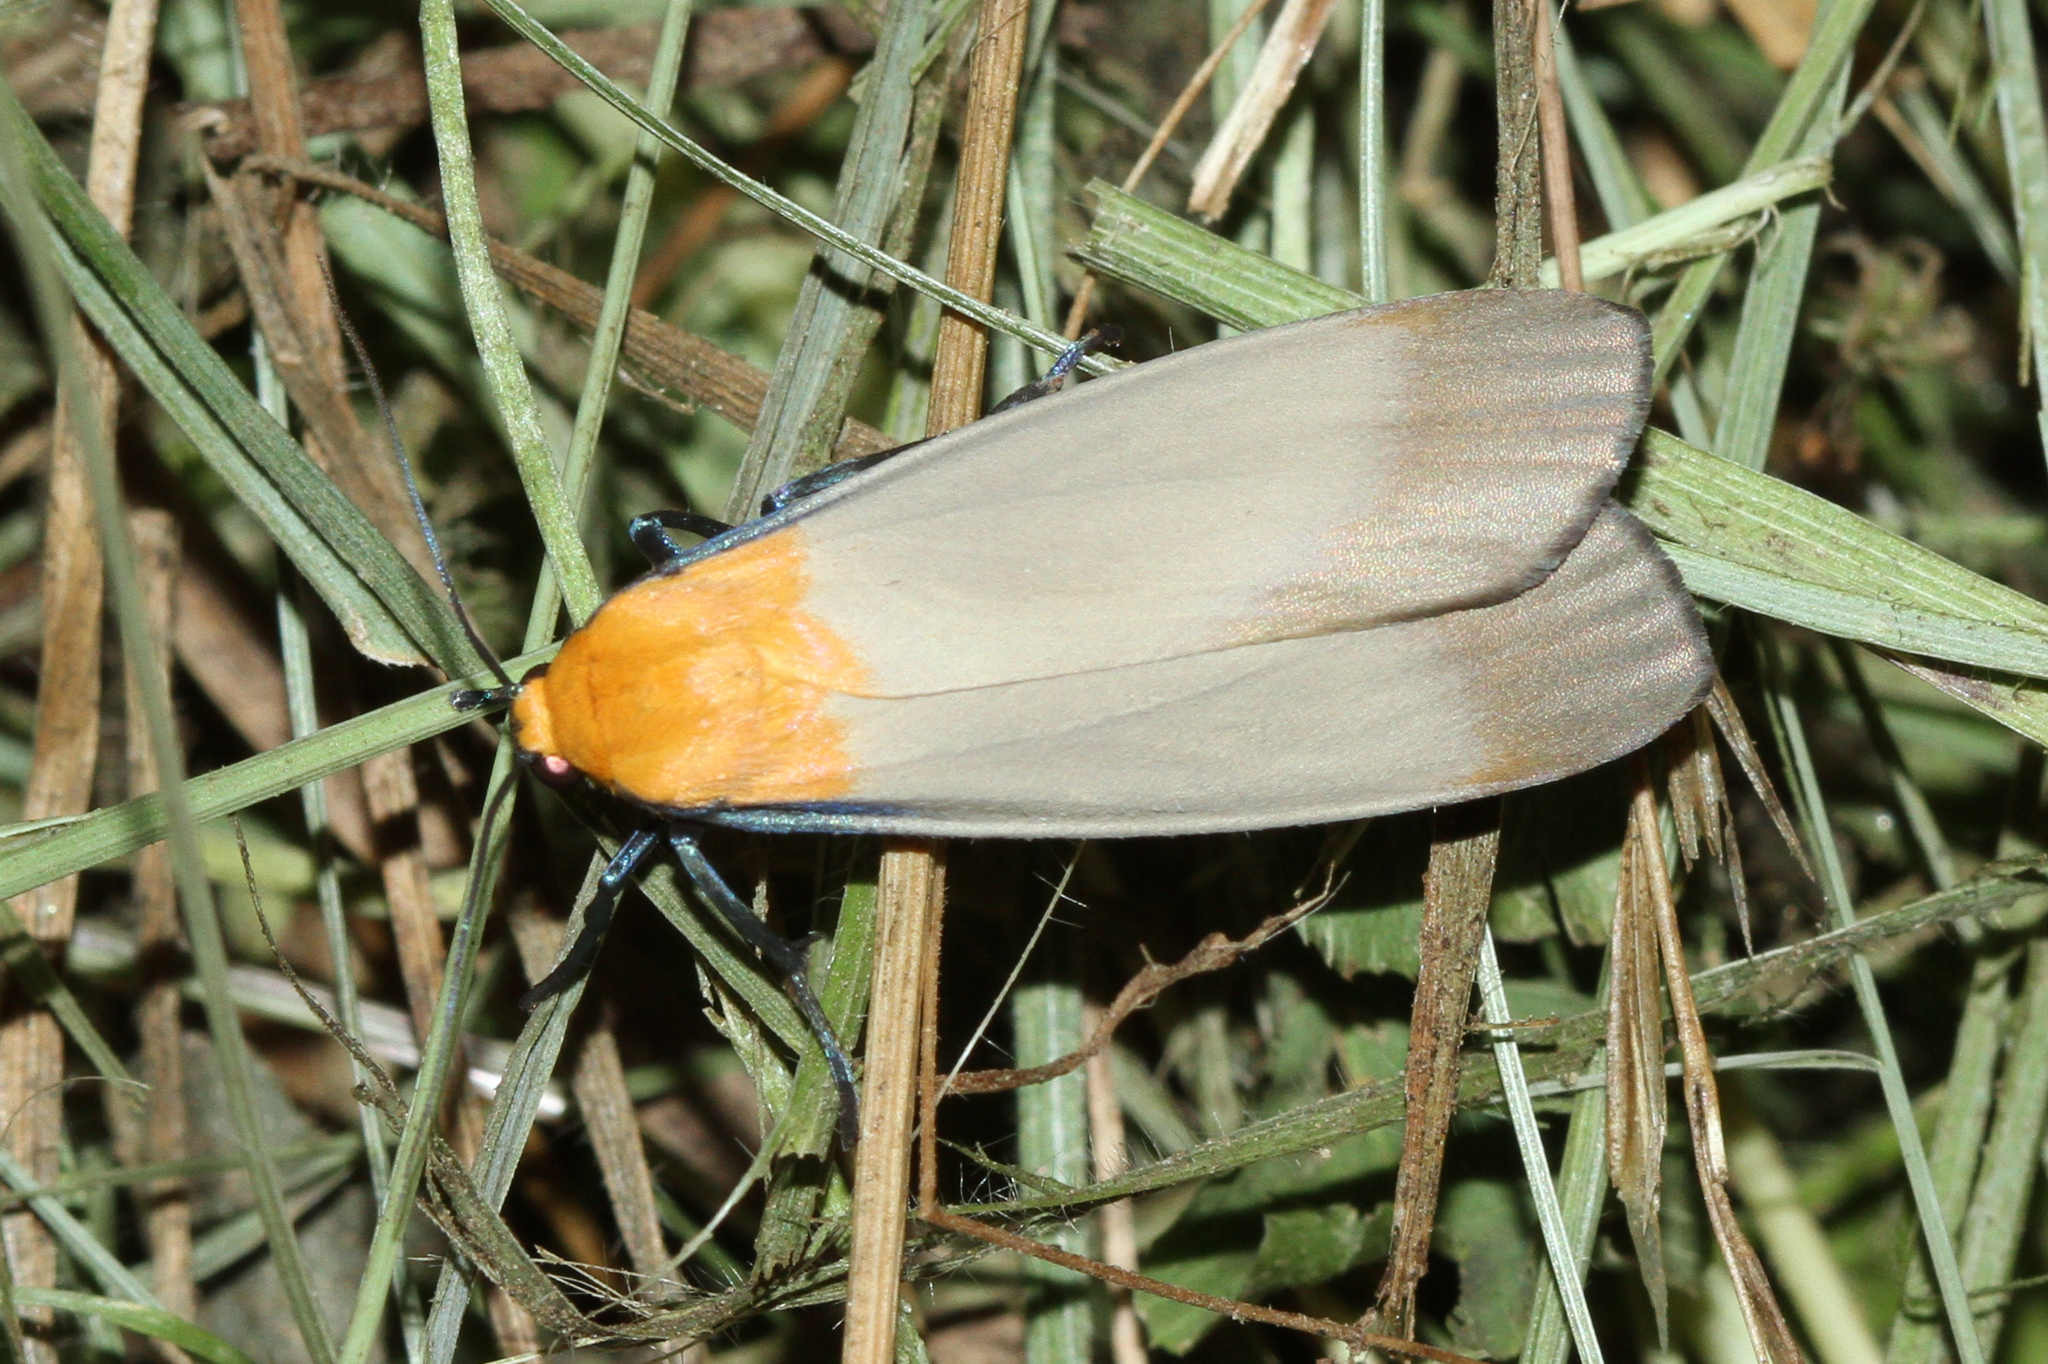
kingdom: Animalia
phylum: Arthropoda
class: Insecta
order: Lepidoptera
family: Erebidae
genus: Lithosia
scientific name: Lithosia quadra
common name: Four-spotted footman
